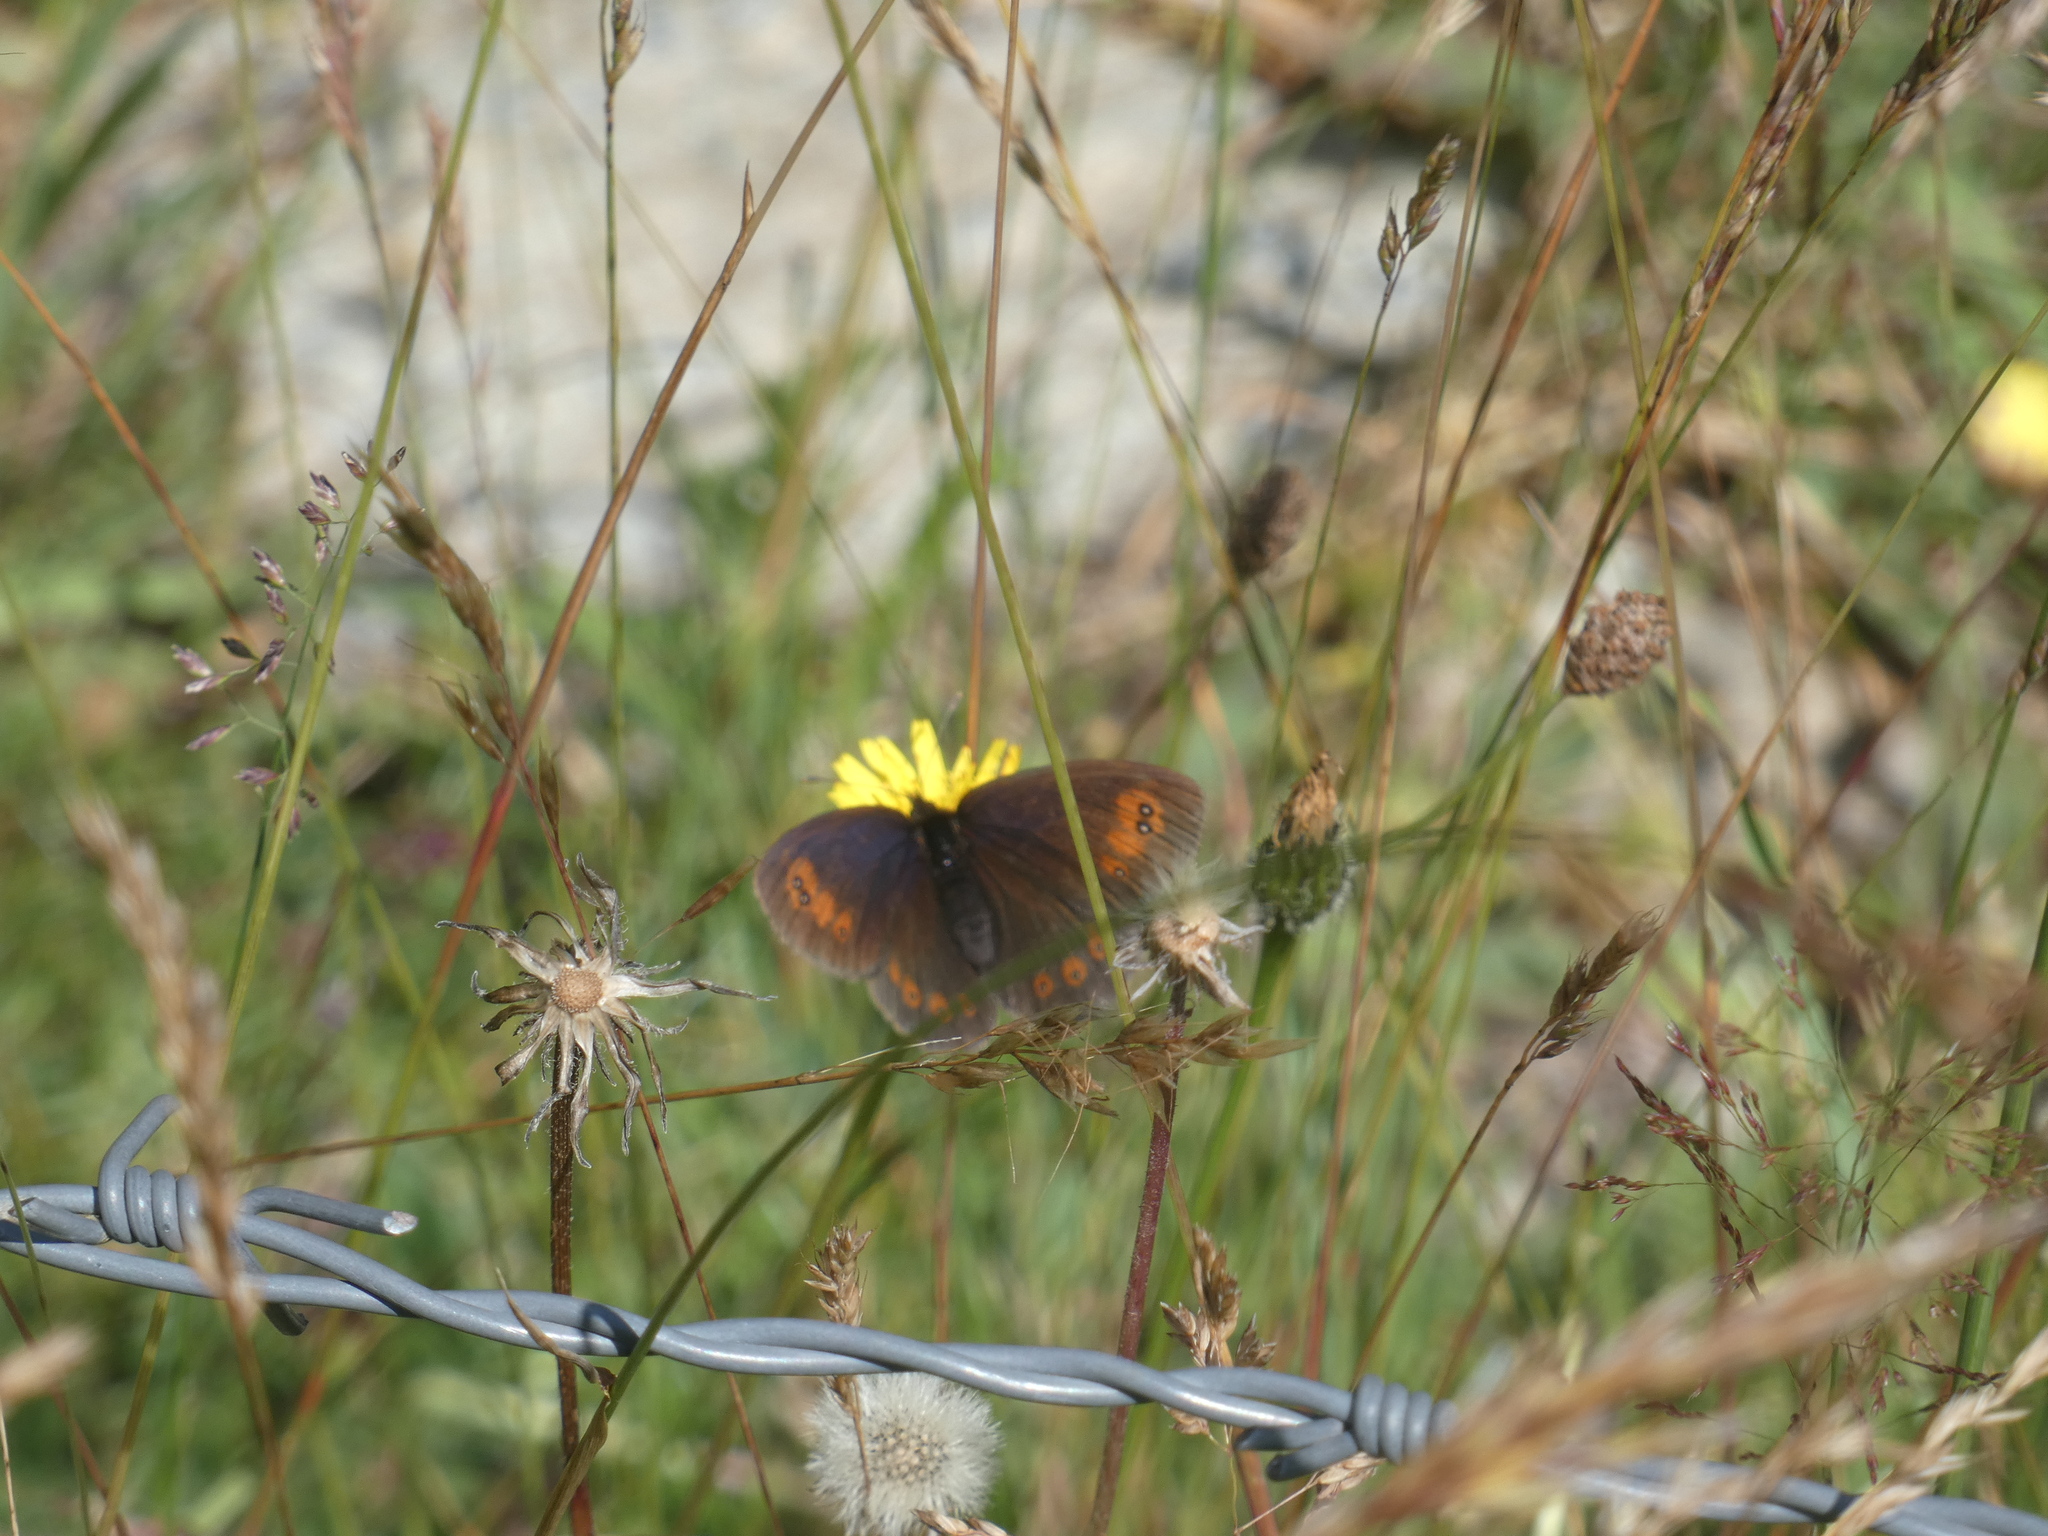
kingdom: Animalia
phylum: Arthropoda
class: Insecta
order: Lepidoptera
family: Nymphalidae
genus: Erebia
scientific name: Erebia meolans
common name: Piedmont ringlet
